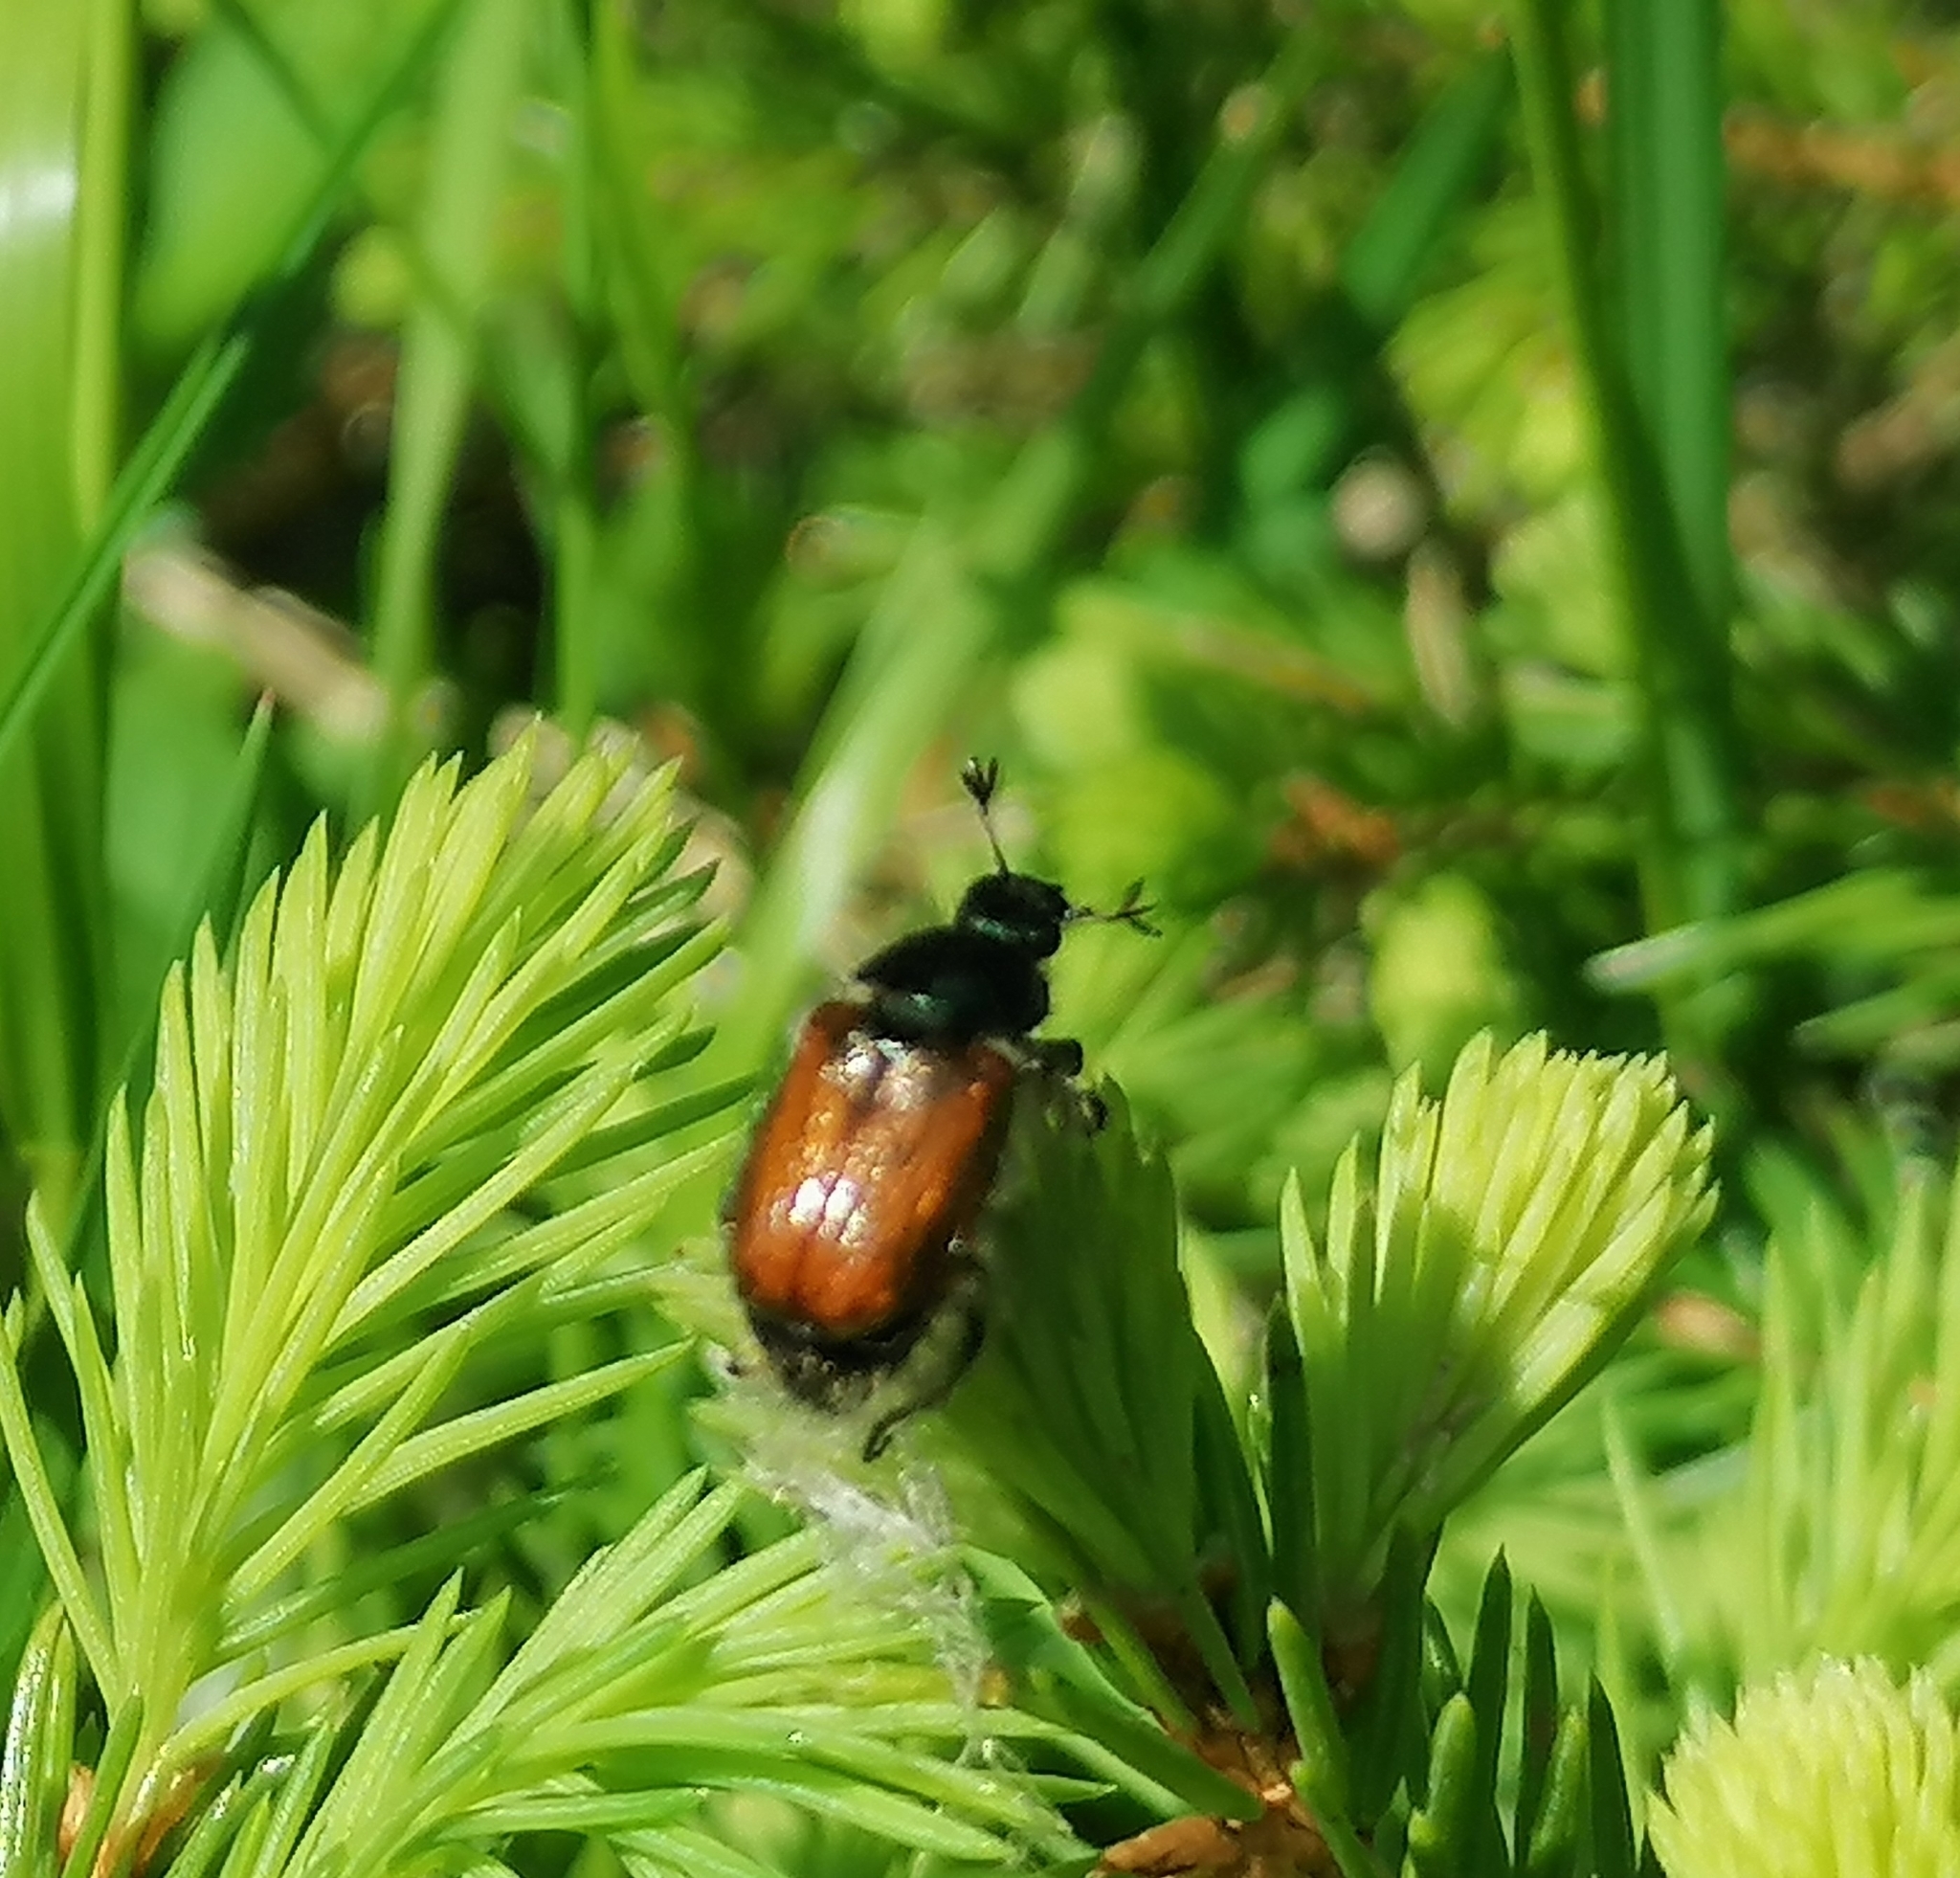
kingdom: Animalia
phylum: Arthropoda
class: Insecta
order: Coleoptera
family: Scarabaeidae
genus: Phyllopertha
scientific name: Phyllopertha horticola
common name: Garden chafer
